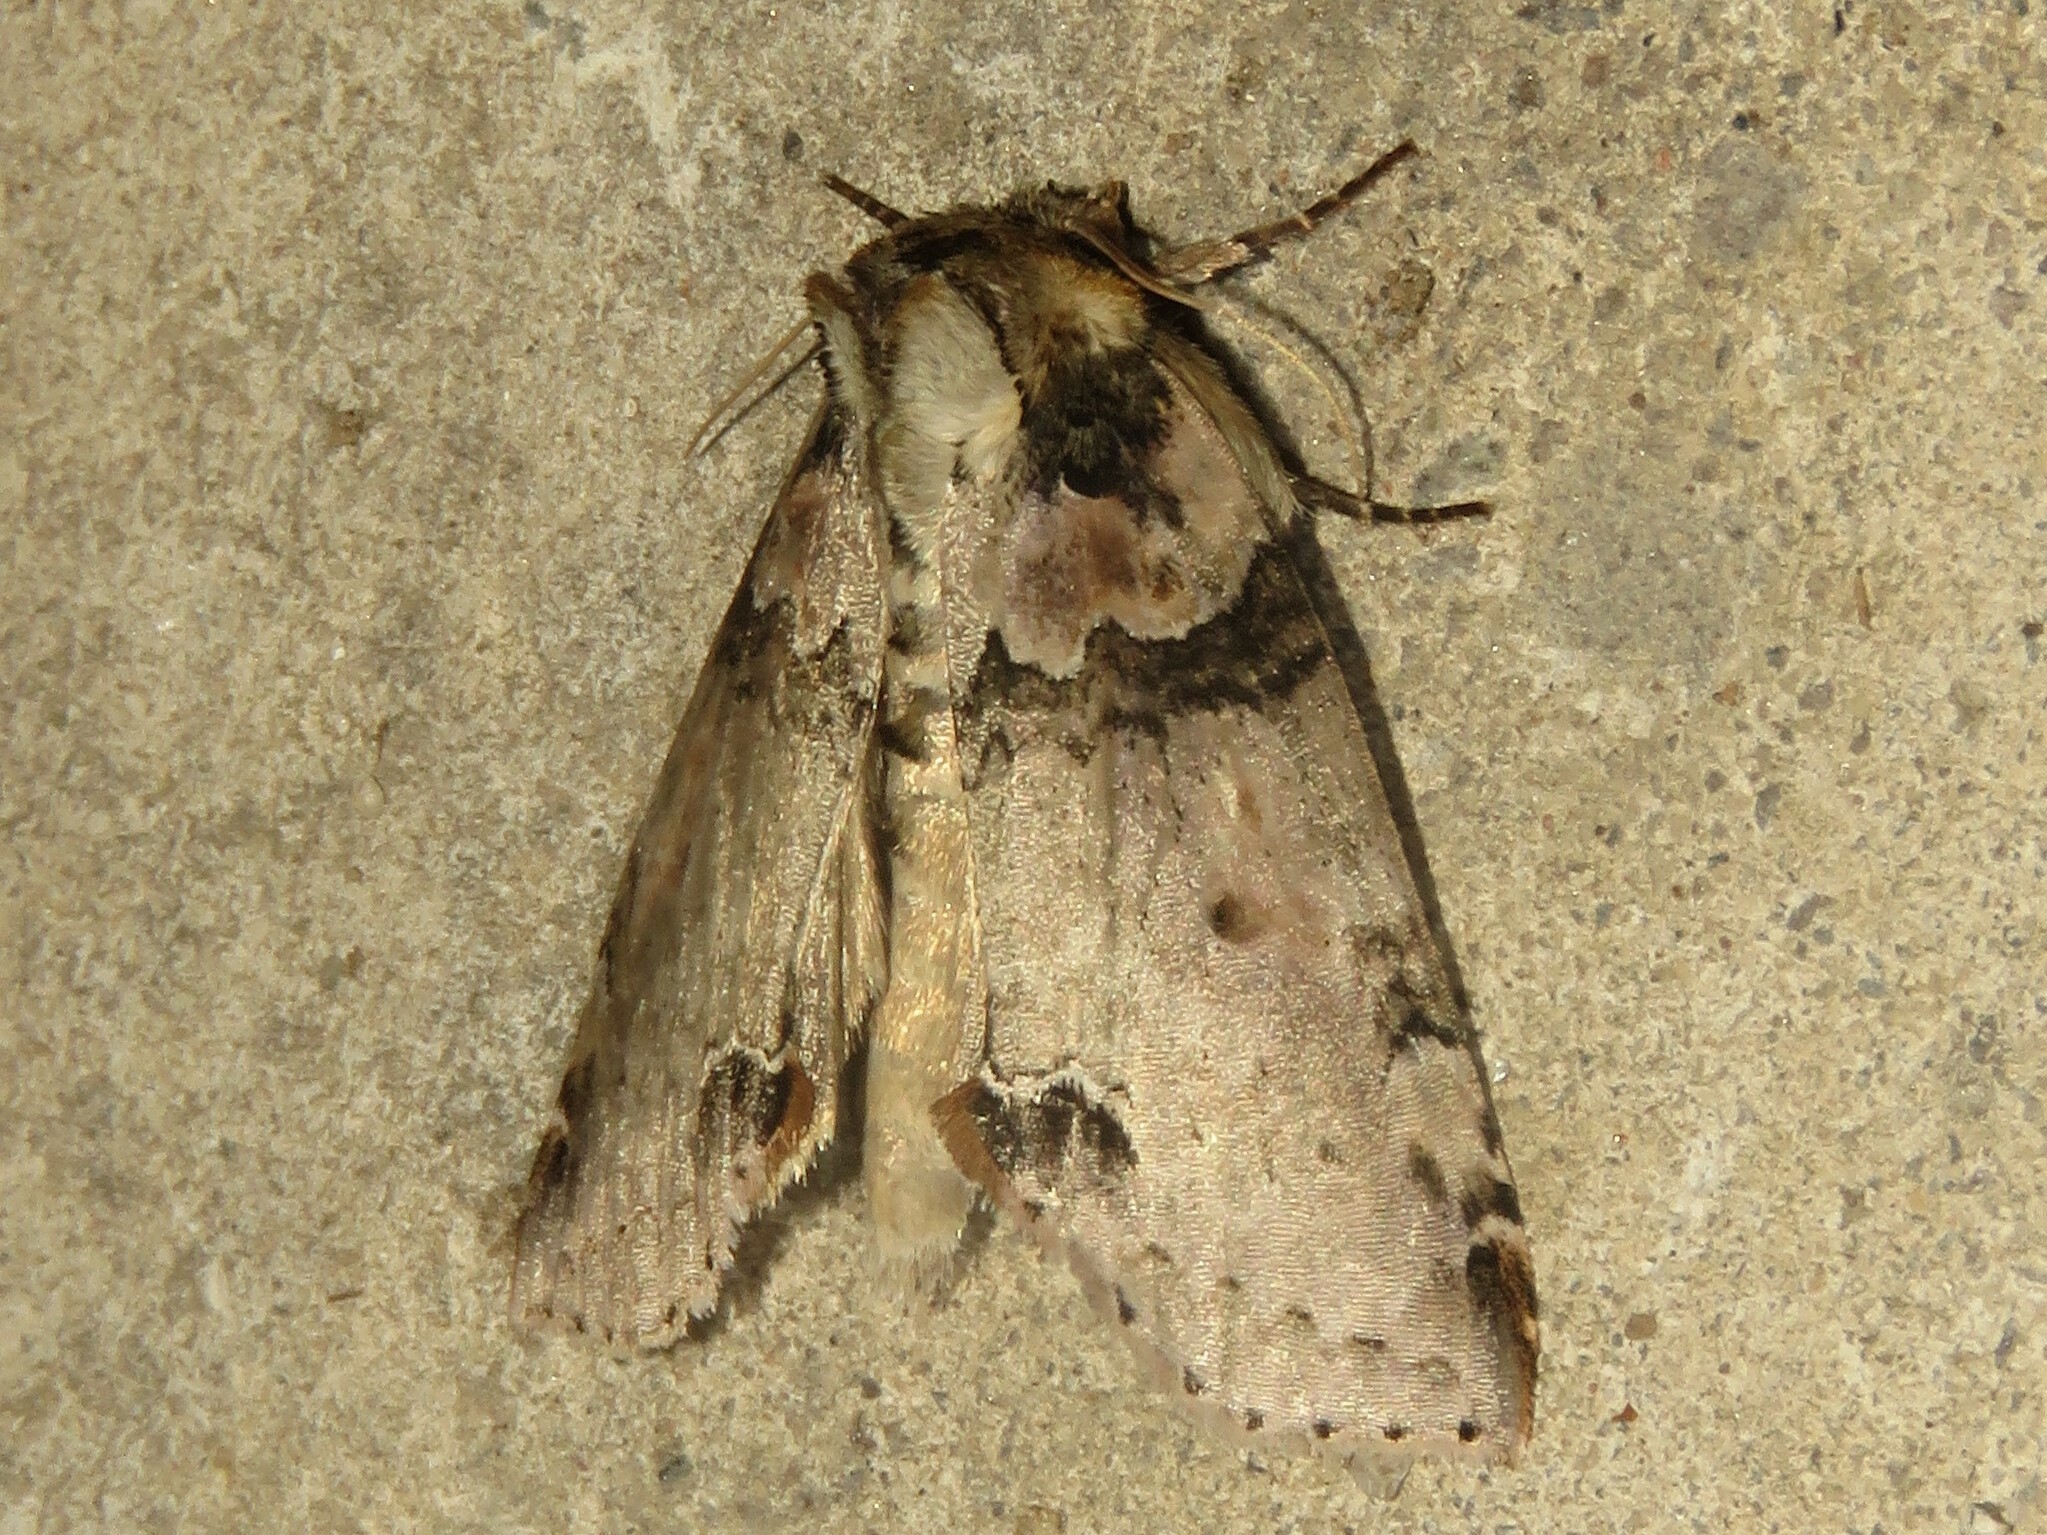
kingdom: Animalia
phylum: Arthropoda
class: Insecta
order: Lepidoptera
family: Drepanidae
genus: Pseudothyatira
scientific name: Pseudothyatira cymatophoroides
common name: Tufted thyatirid moth
